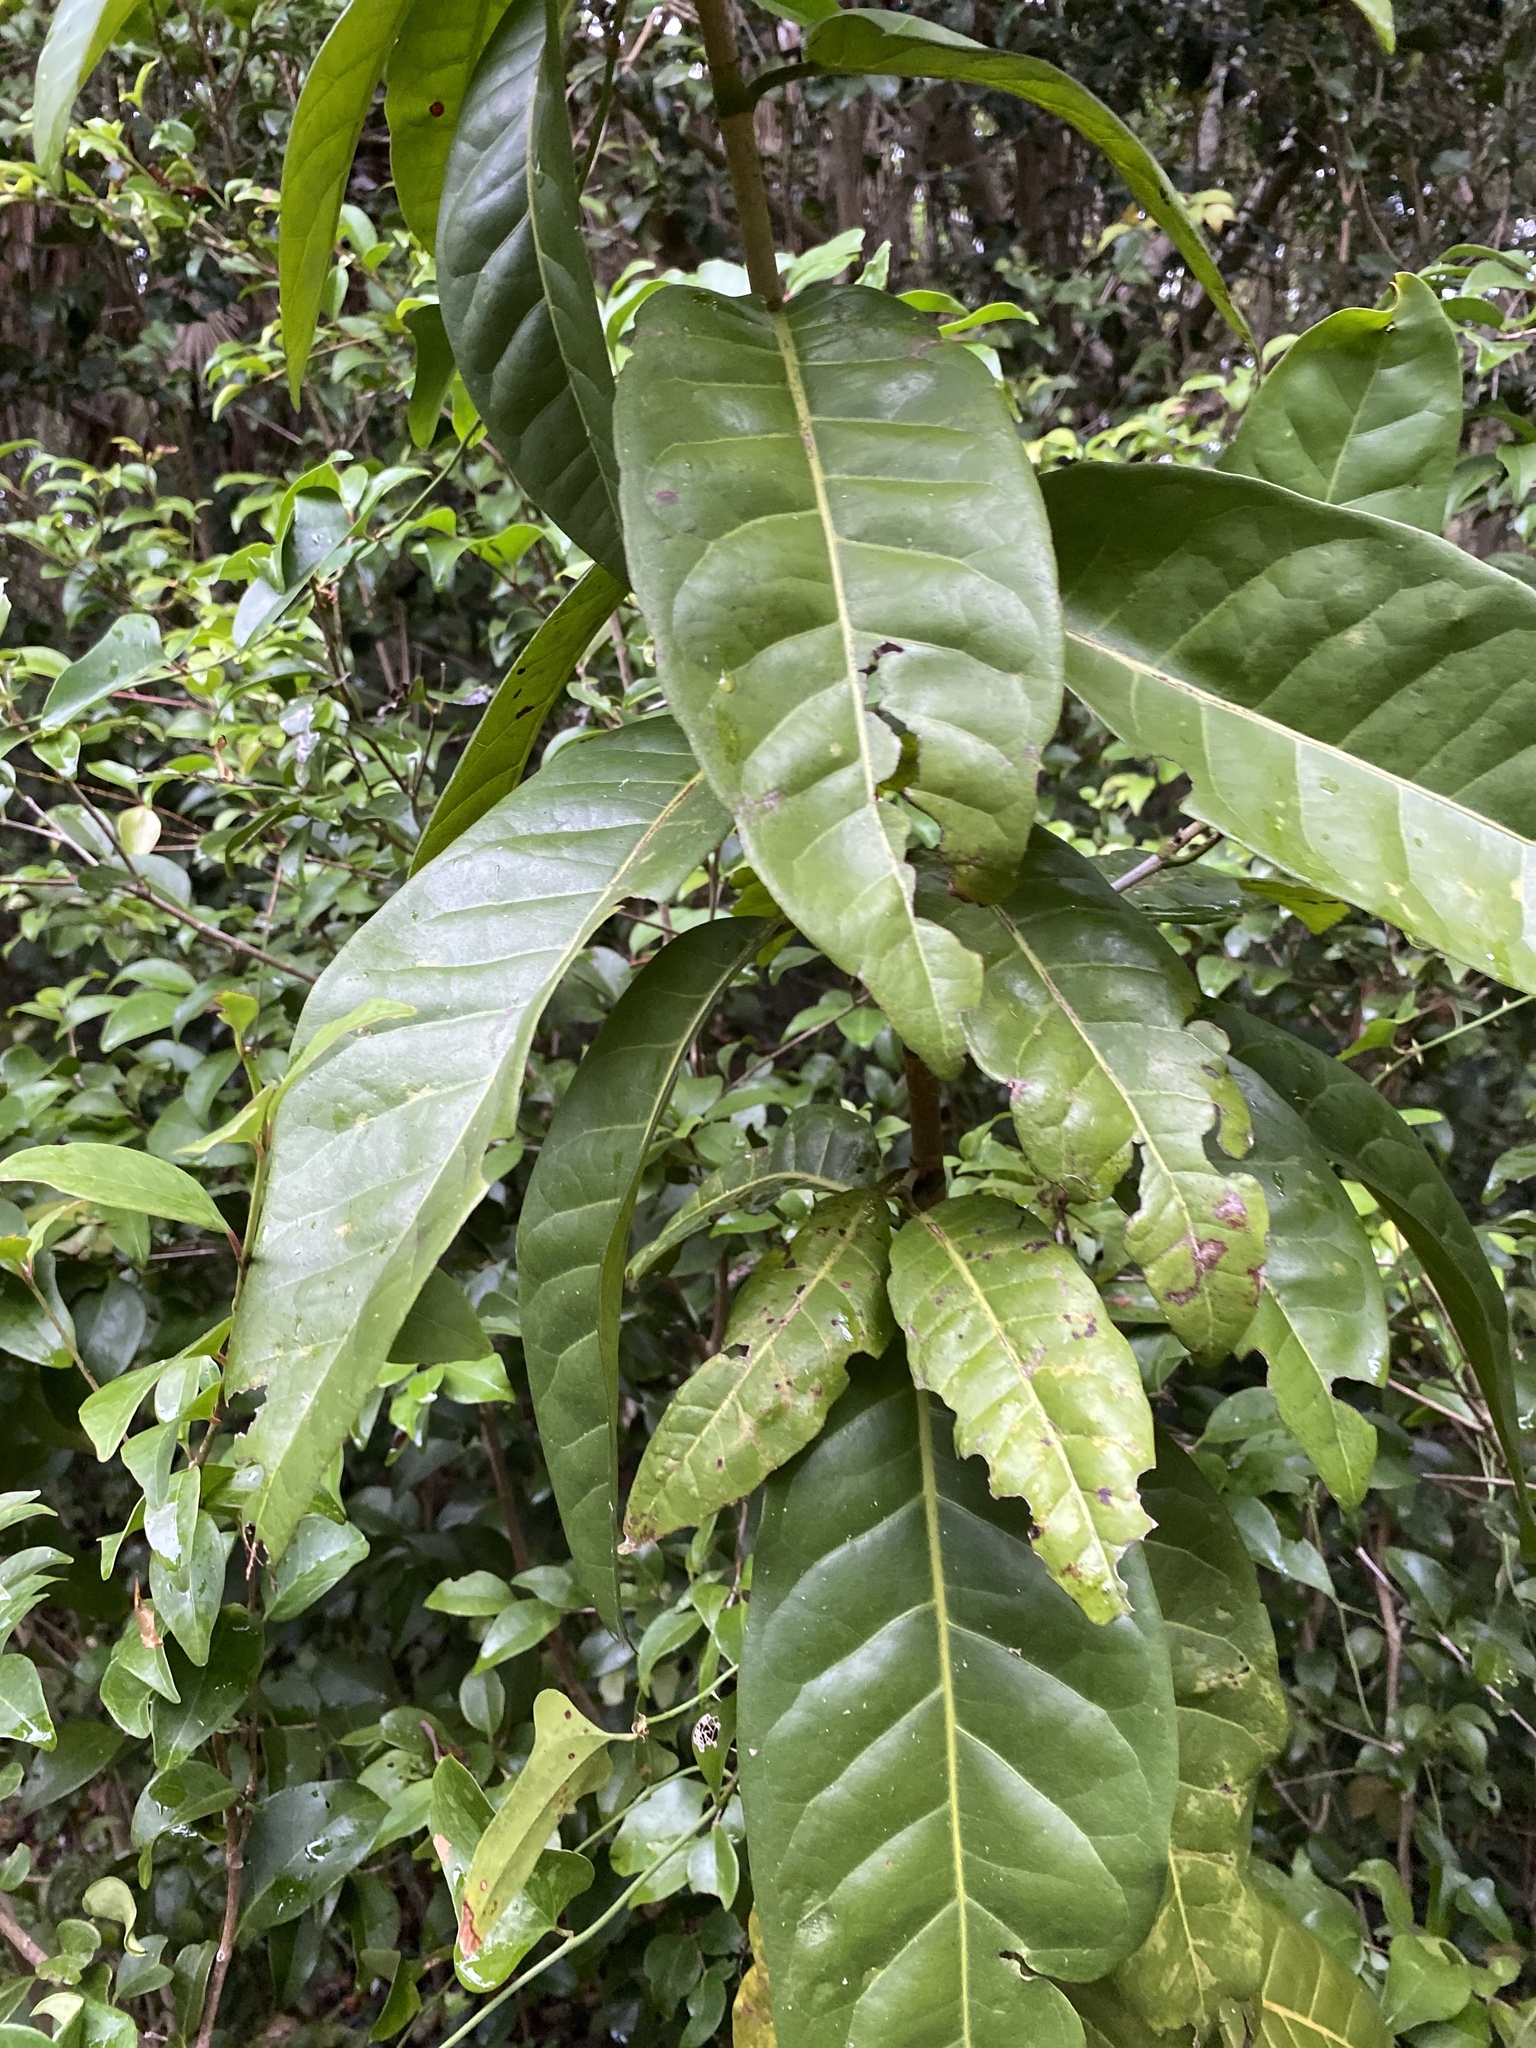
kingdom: Plantae
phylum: Tracheophyta
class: Magnoliopsida
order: Caryophyllales
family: Polygonaceae
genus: Coccoloba
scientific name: Coccoloba diversifolia
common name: Pigeon-plum
